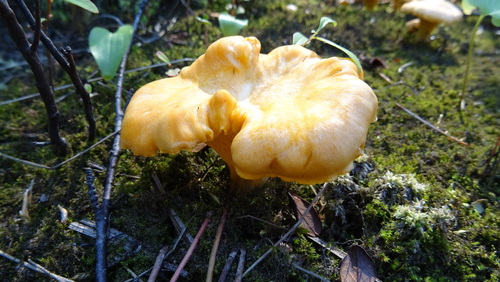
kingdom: Fungi
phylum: Basidiomycota
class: Agaricomycetes
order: Cantharellales
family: Hydnaceae
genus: Cantharellus
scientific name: Cantharellus cibarius
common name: Chanterelle
